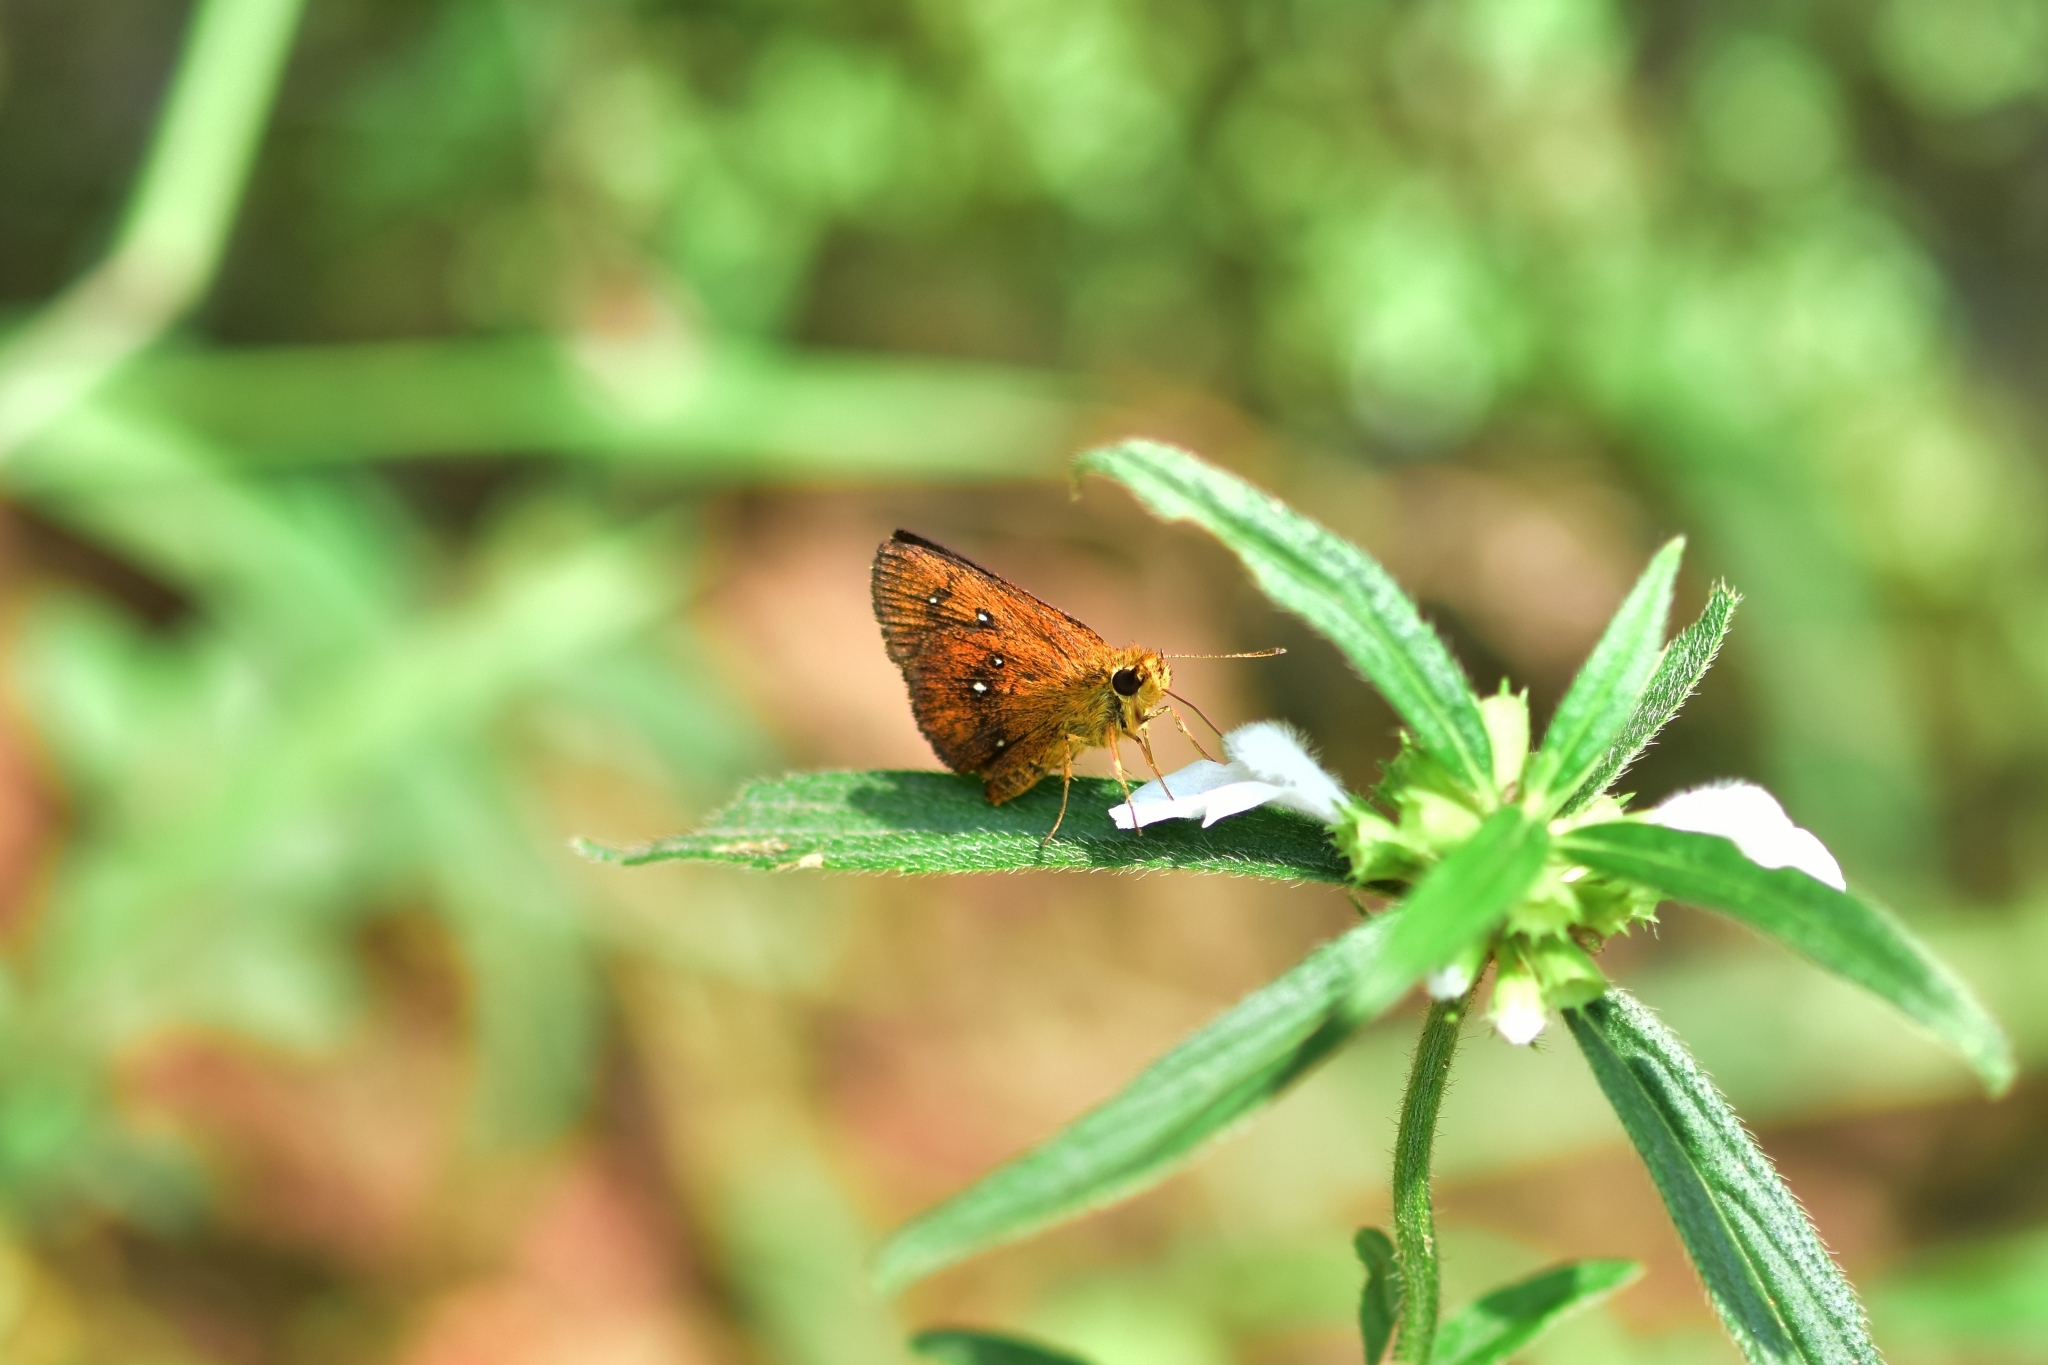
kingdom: Animalia
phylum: Arthropoda
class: Insecta
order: Lepidoptera
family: Hesperiidae
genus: Iambrix
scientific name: Iambrix salsala
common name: Chestnut bob
